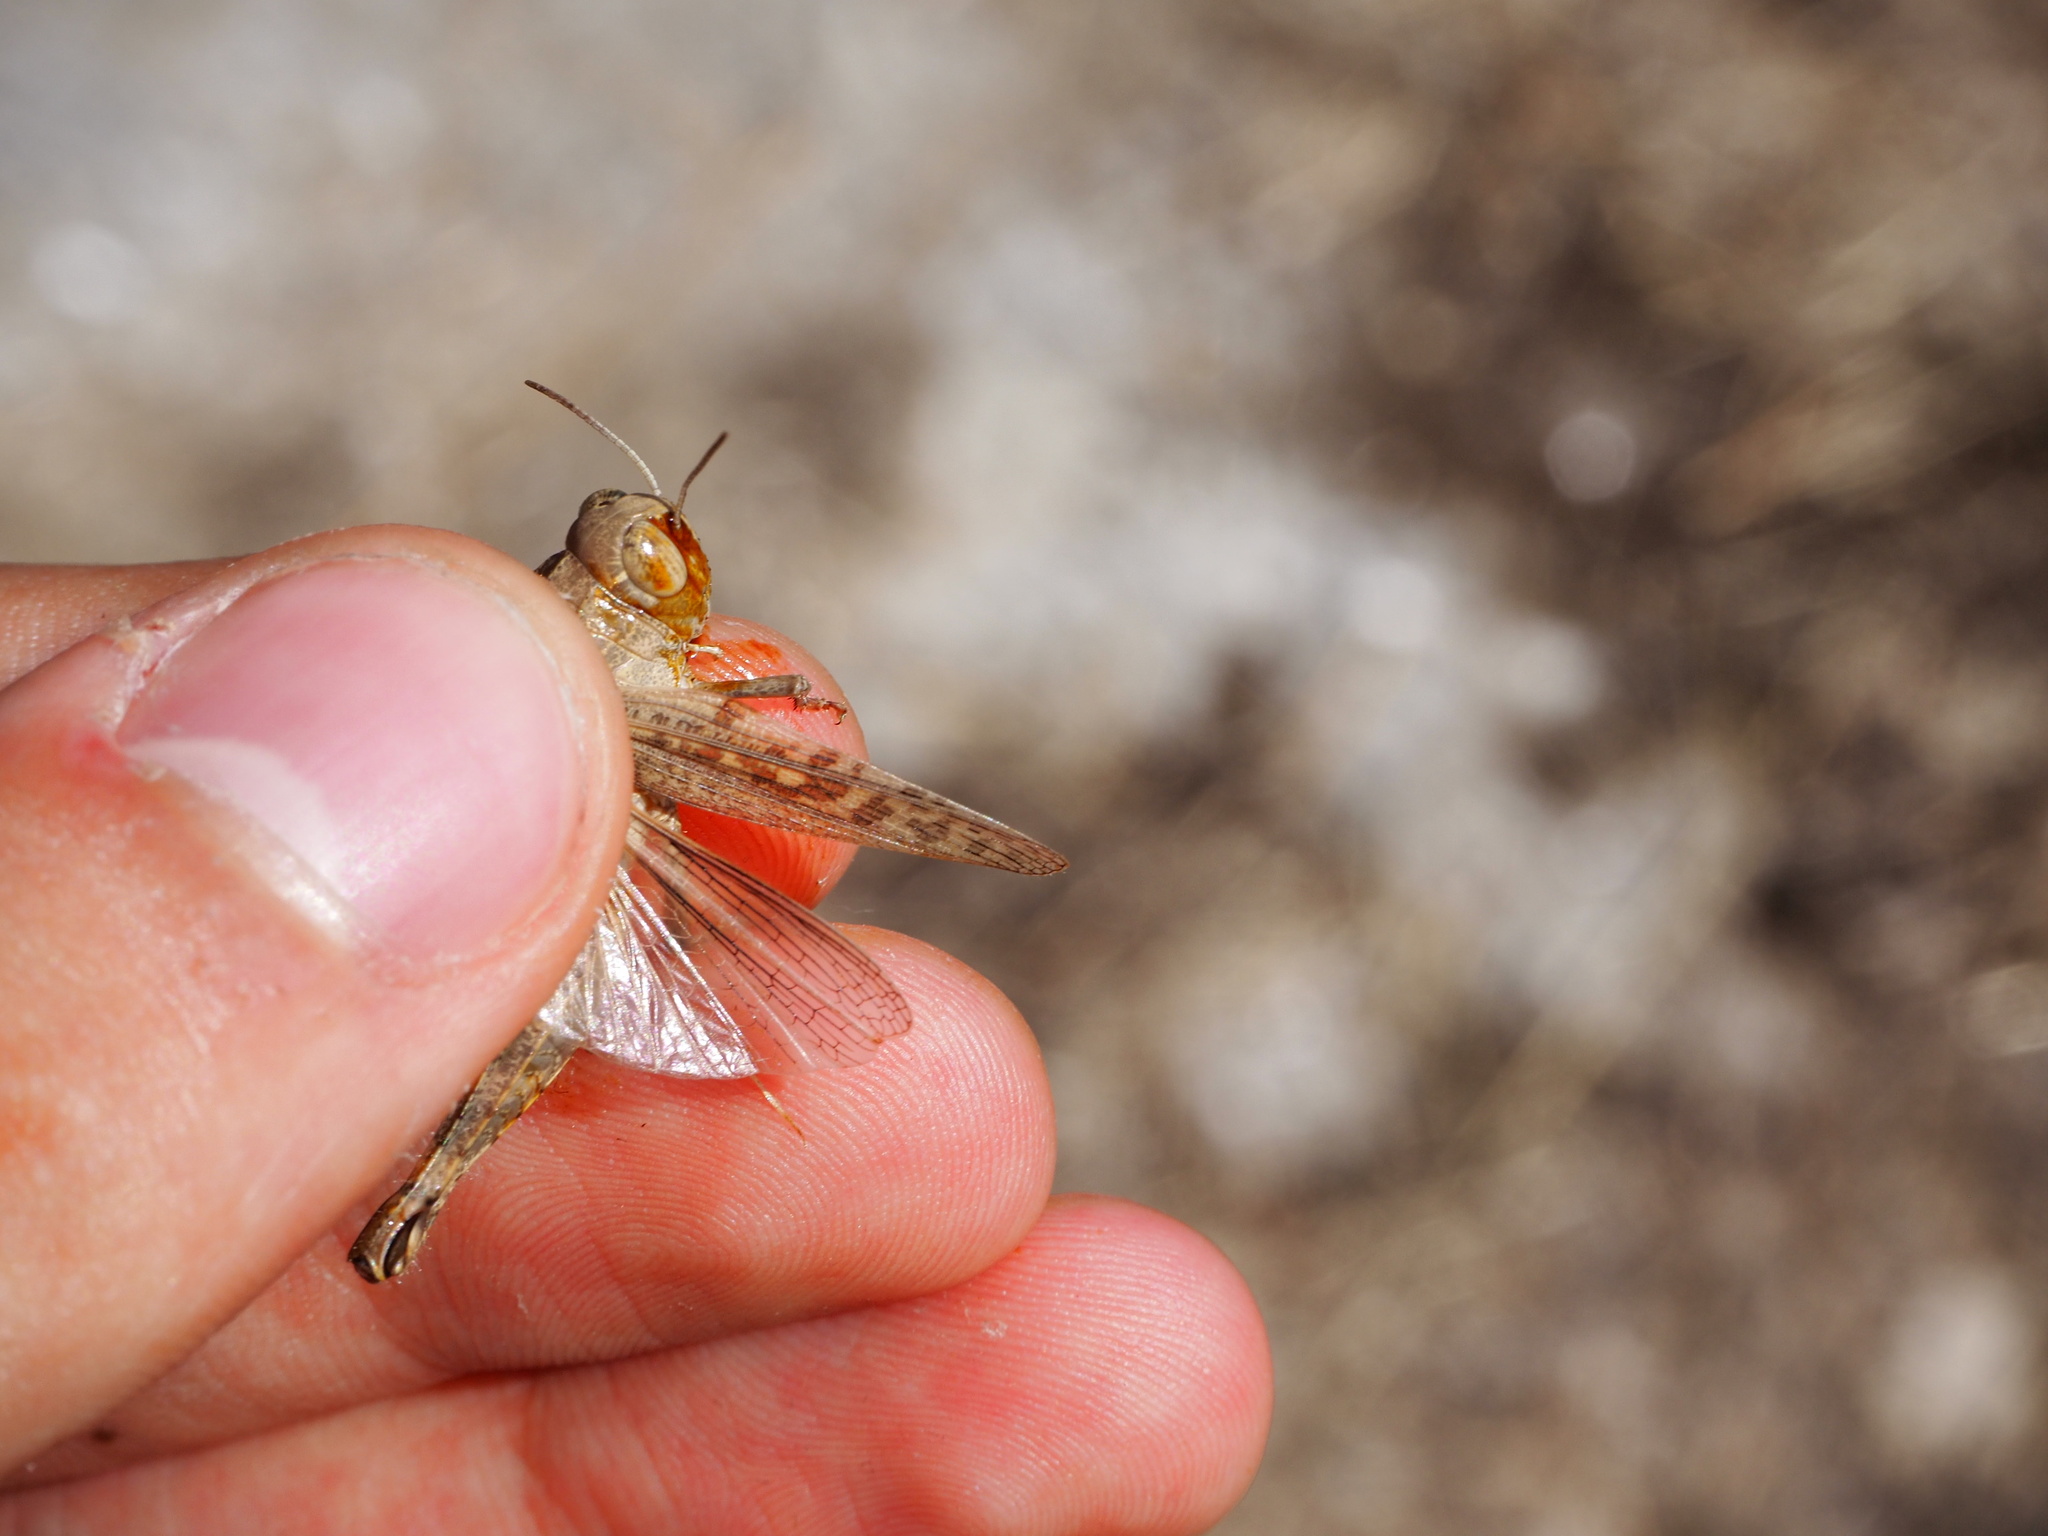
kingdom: Animalia
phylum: Arthropoda
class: Insecta
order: Orthoptera
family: Acrididae
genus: Calliptamus
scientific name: Calliptamus siciliae
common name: Pygmy pincer grasshopper
